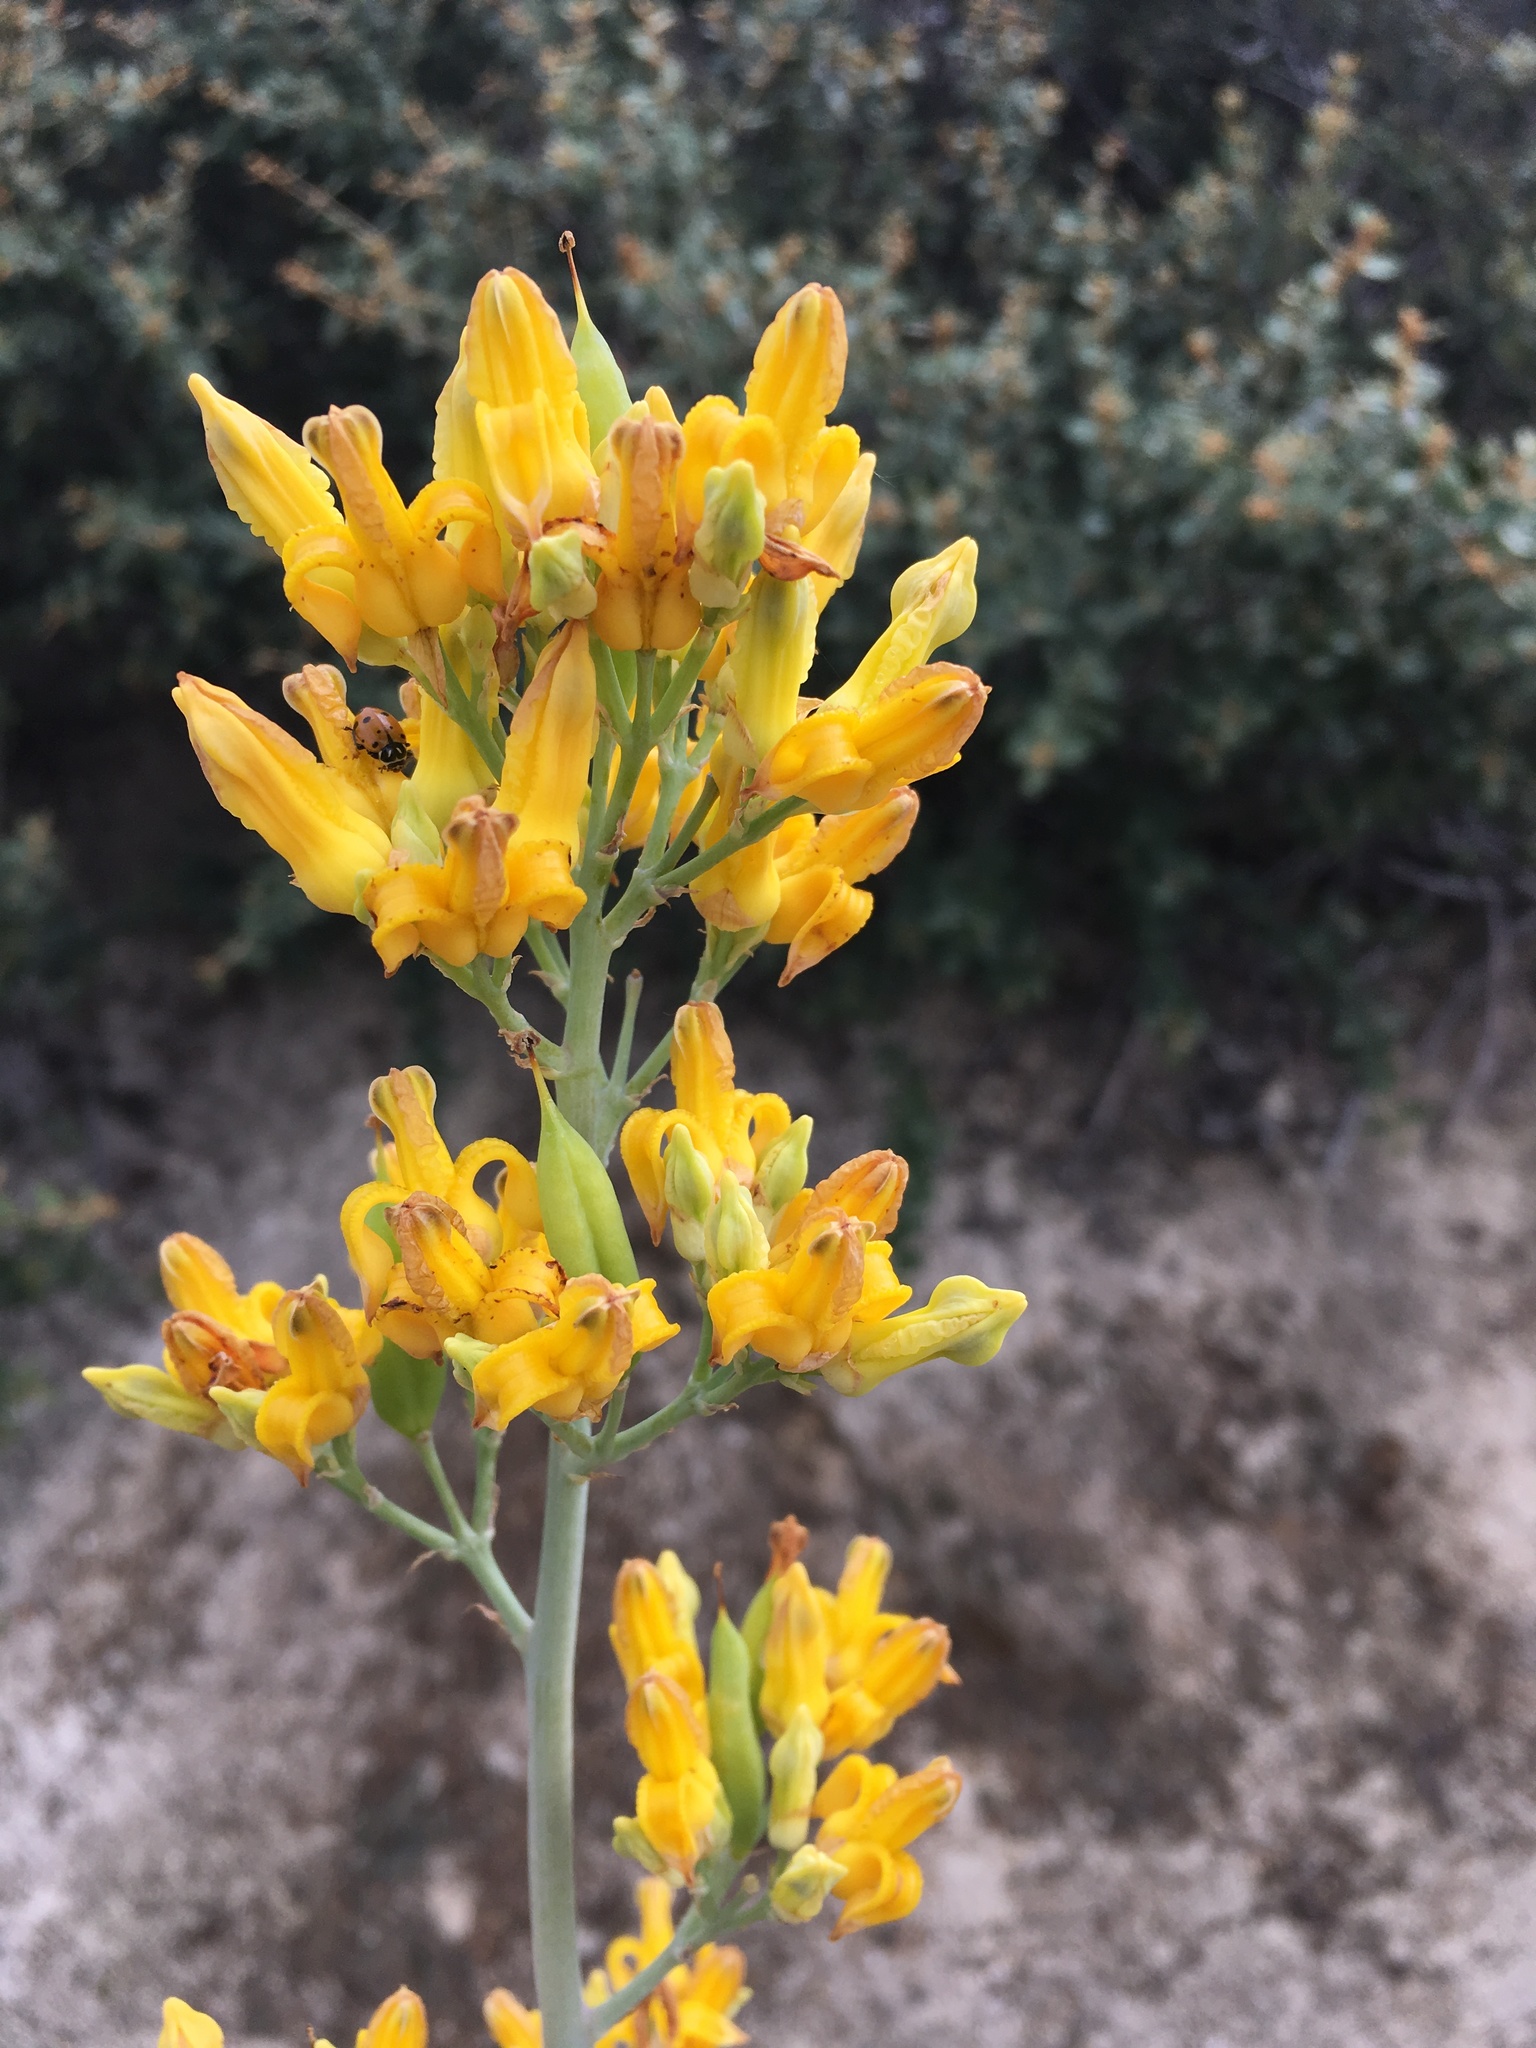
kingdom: Plantae
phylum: Tracheophyta
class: Magnoliopsida
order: Ranunculales
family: Papaveraceae
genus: Ehrendorferia
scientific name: Ehrendorferia chrysantha
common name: Golden eardrops
